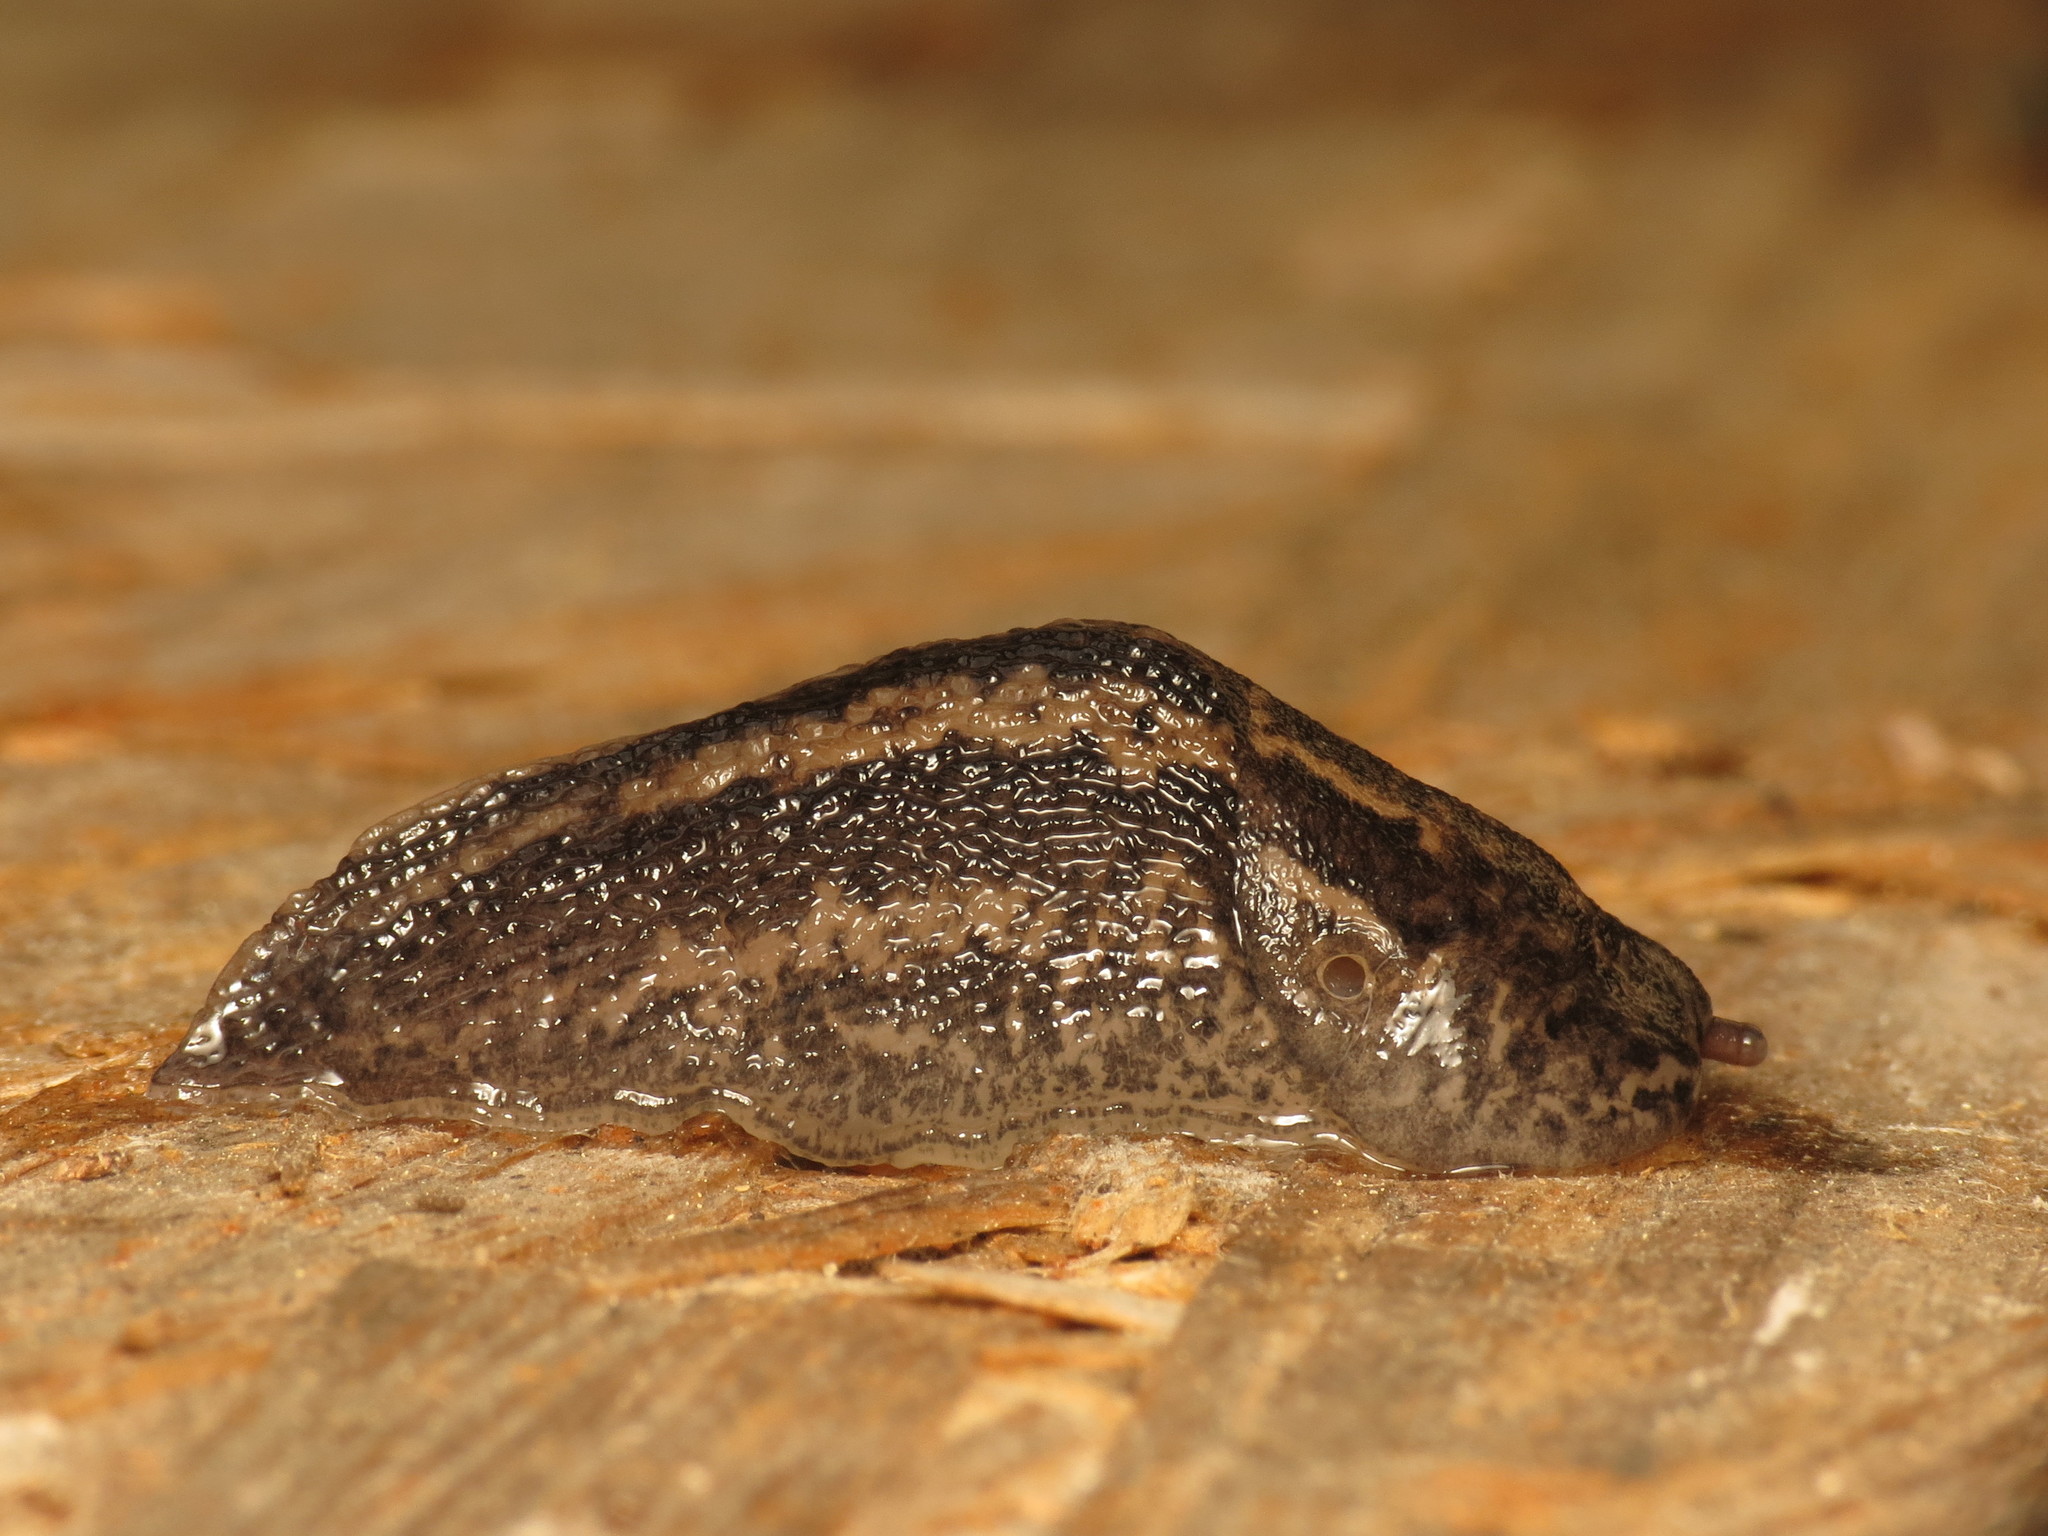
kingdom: Animalia
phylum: Mollusca
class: Gastropoda
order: Stylommatophora
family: Limacidae
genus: Limax
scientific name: Limax maximus
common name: Great grey slug
